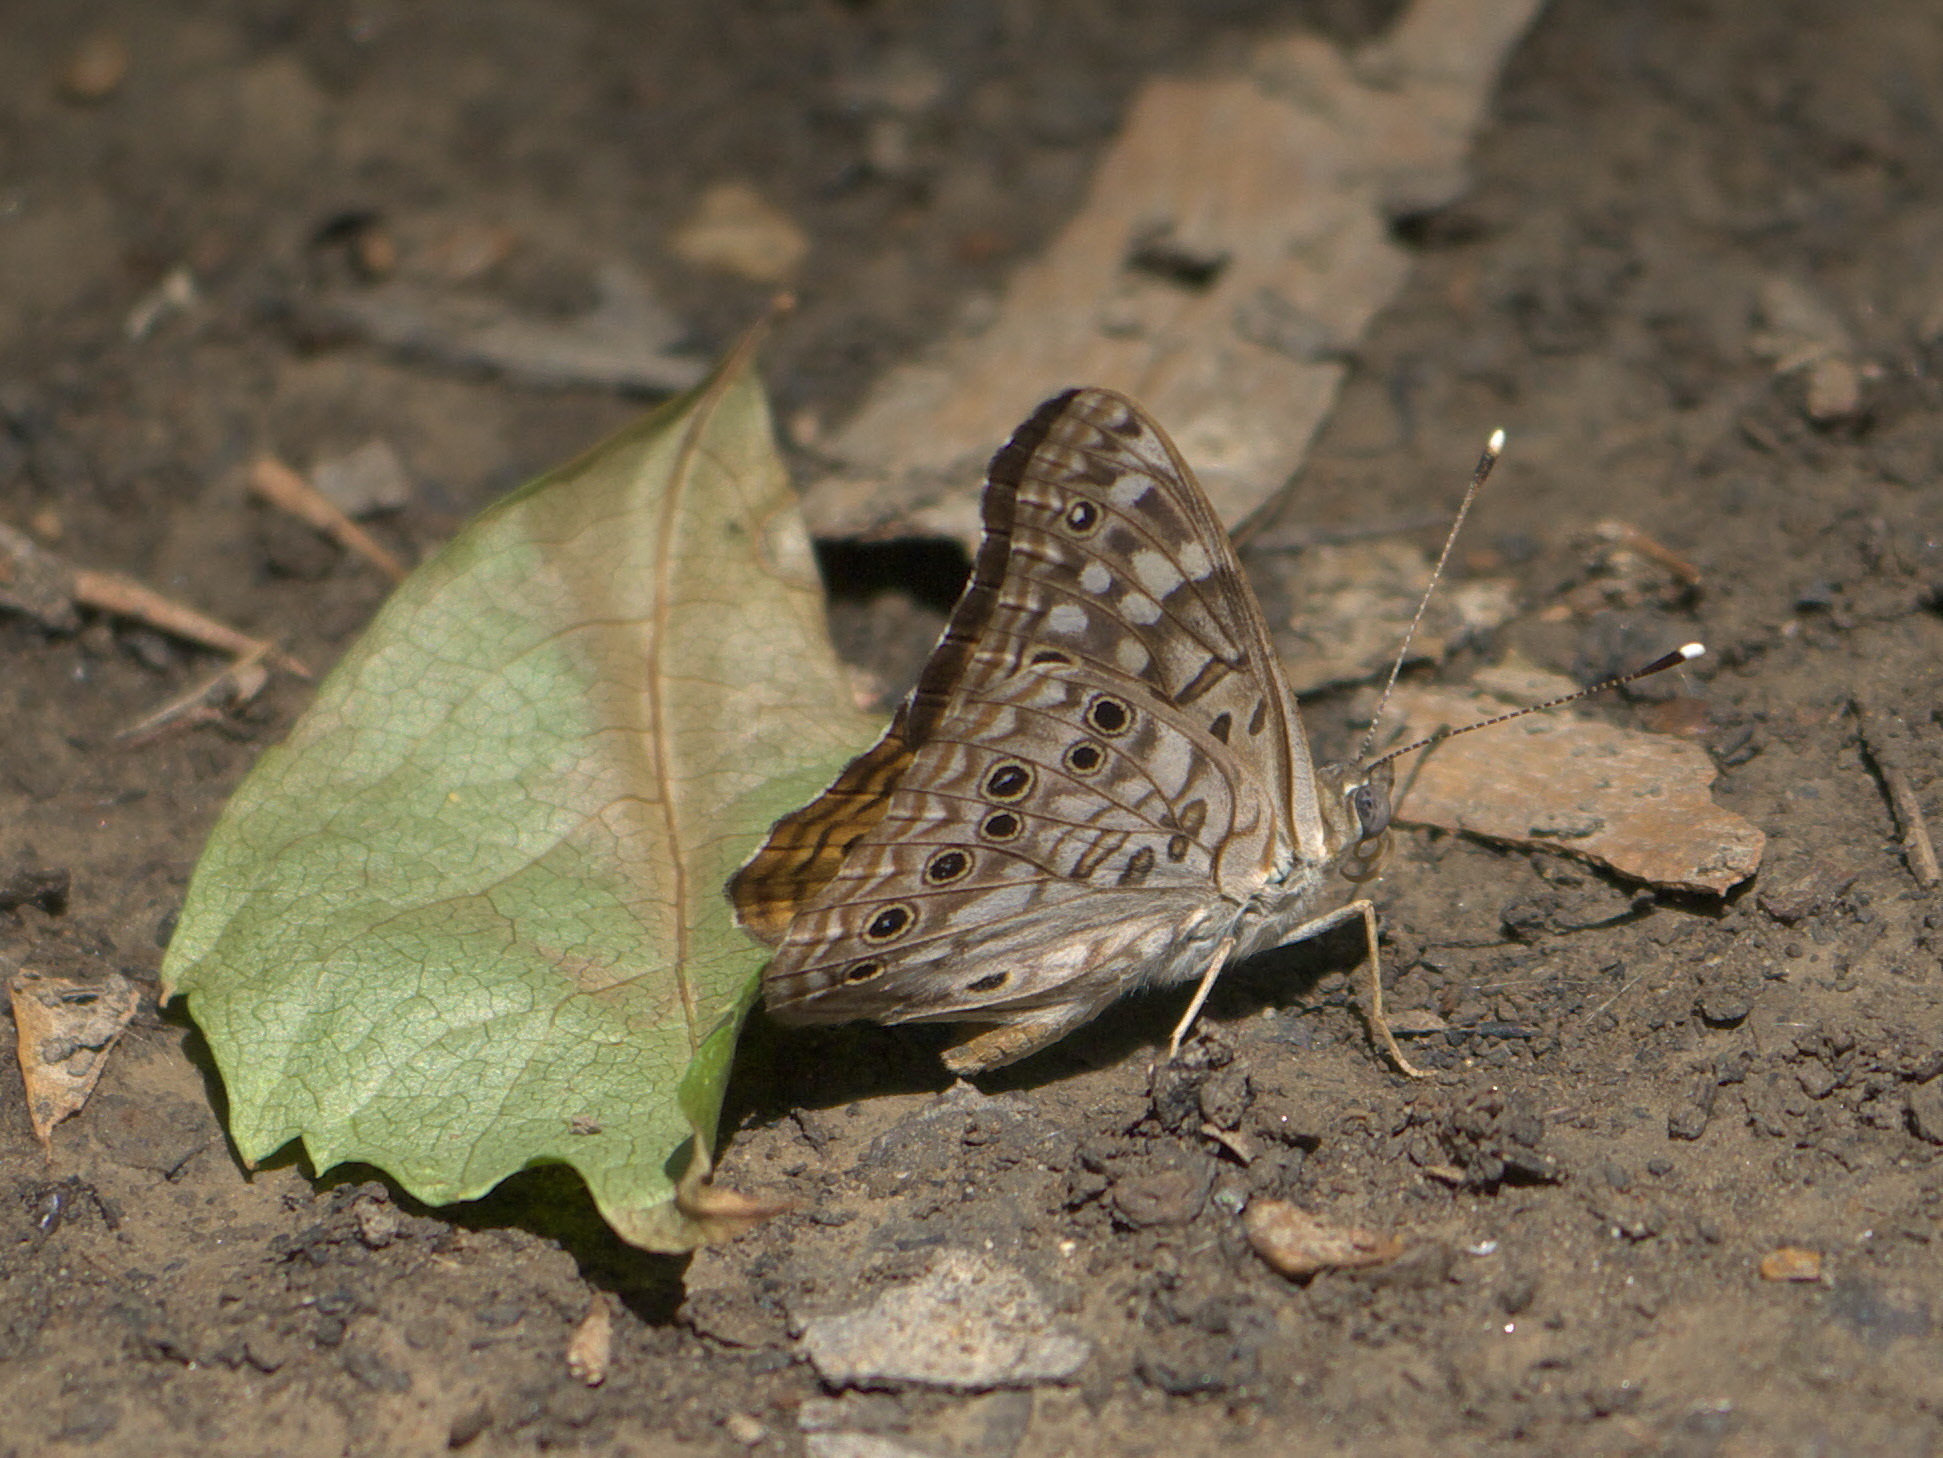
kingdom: Animalia
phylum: Arthropoda
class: Insecta
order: Lepidoptera
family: Nymphalidae
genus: Asterocampa
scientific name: Asterocampa celtis
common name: Hackberry emperor
